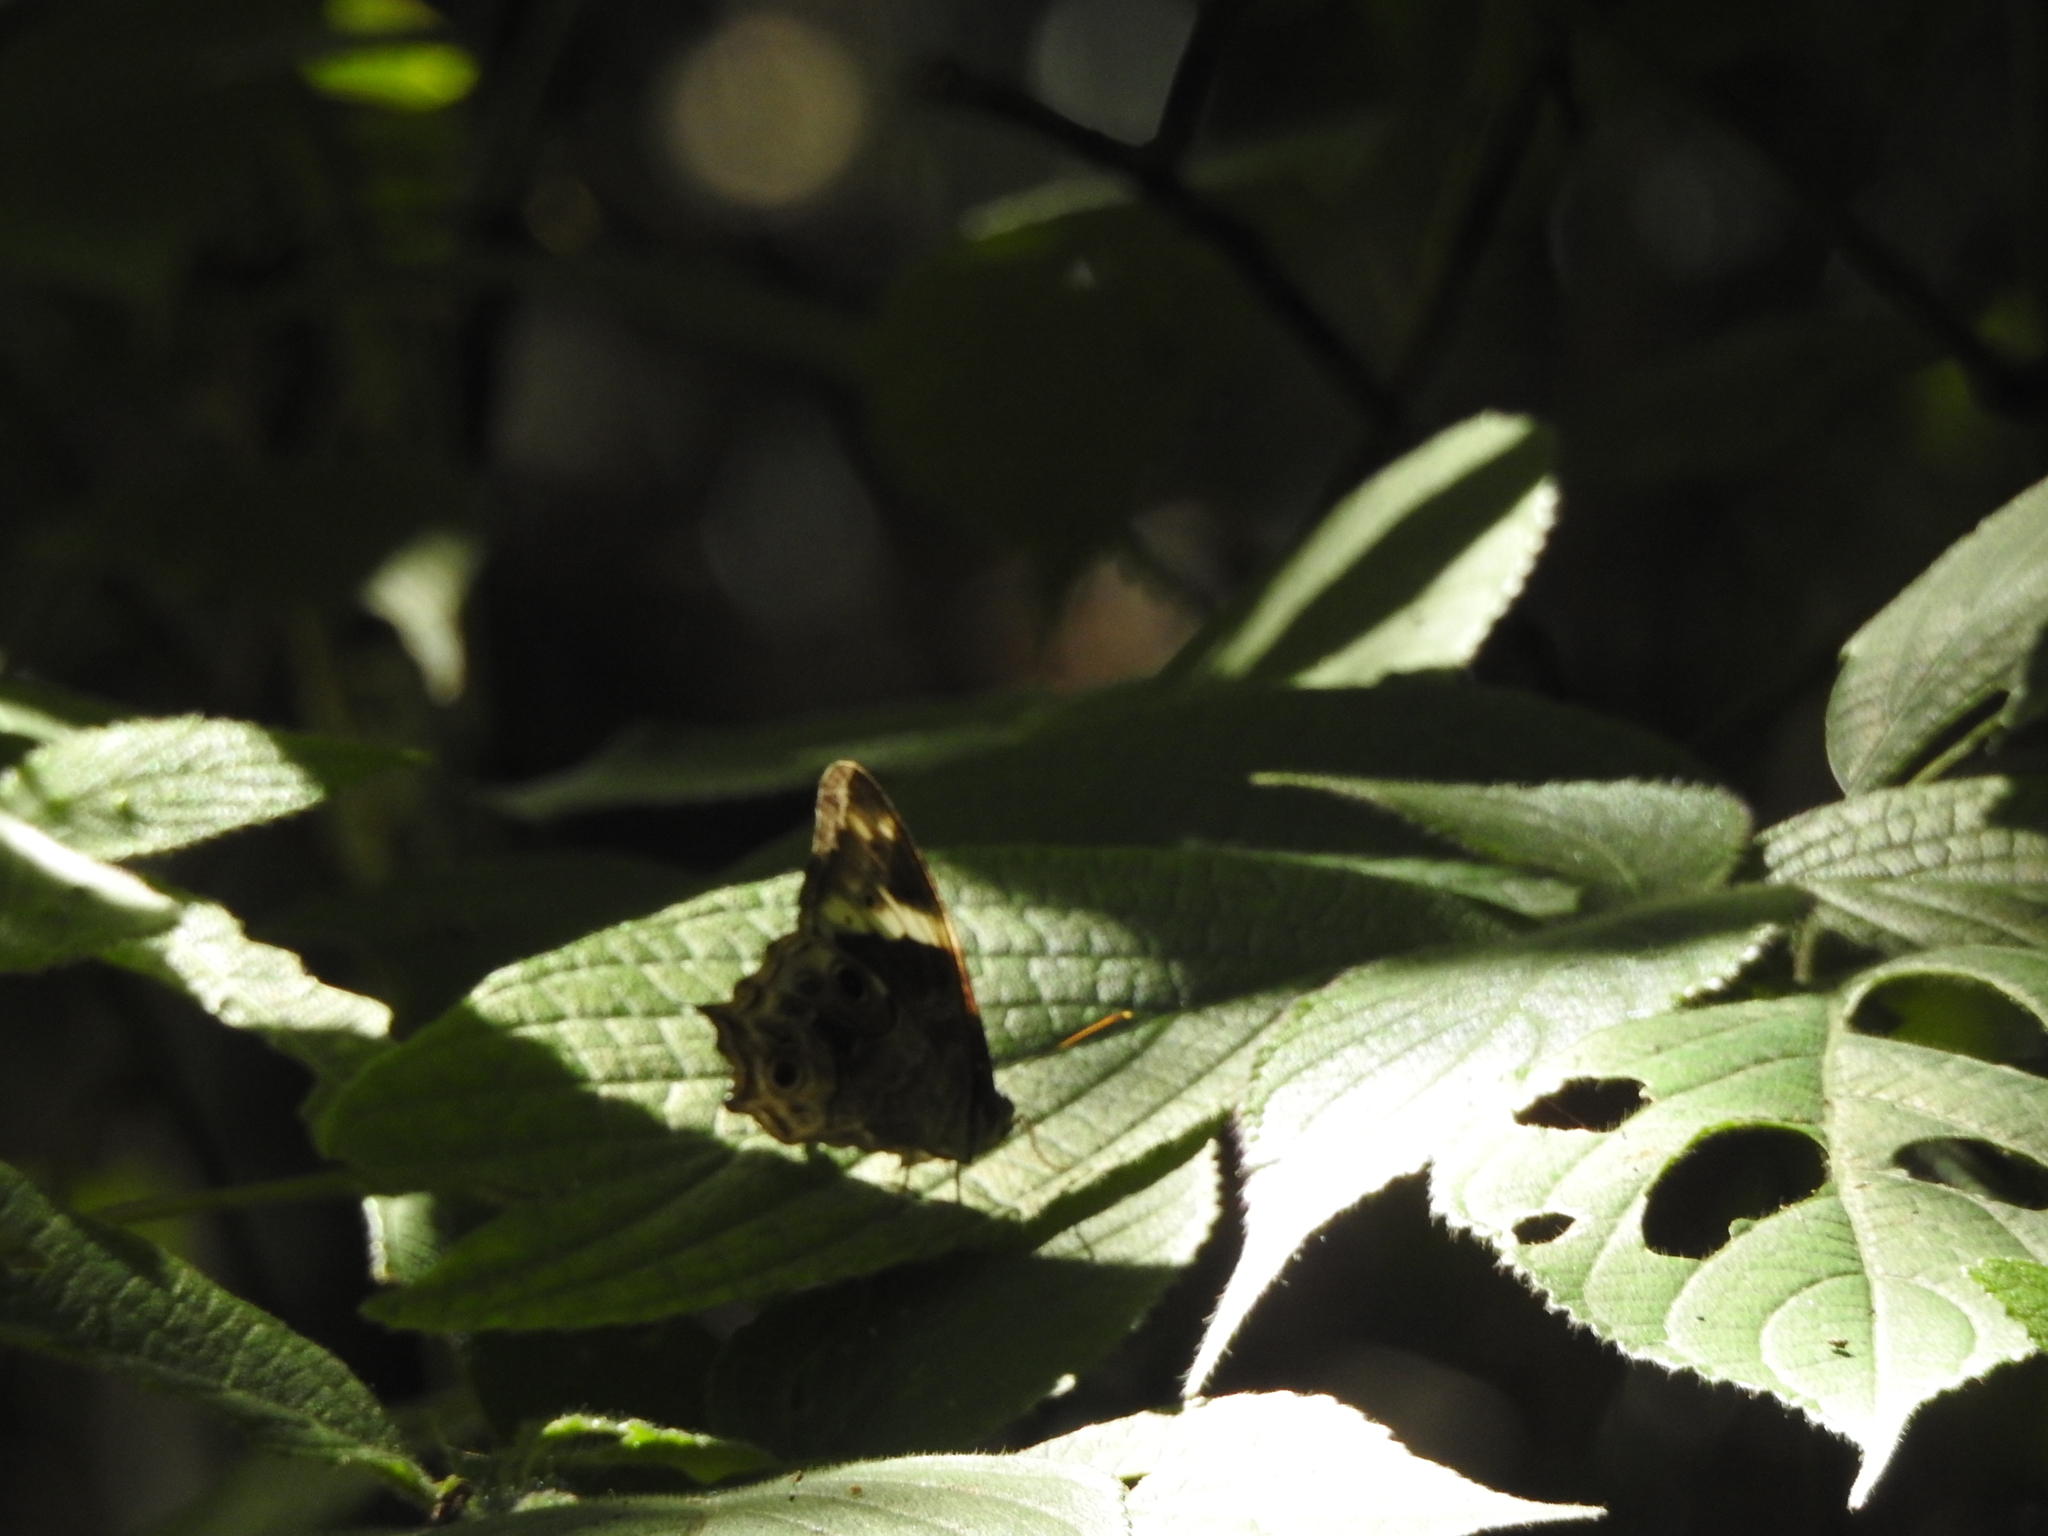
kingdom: Animalia
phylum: Arthropoda
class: Insecta
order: Lepidoptera
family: Nymphalidae
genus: Lethe
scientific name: Lethe drypetis
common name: Tamil treebrown
